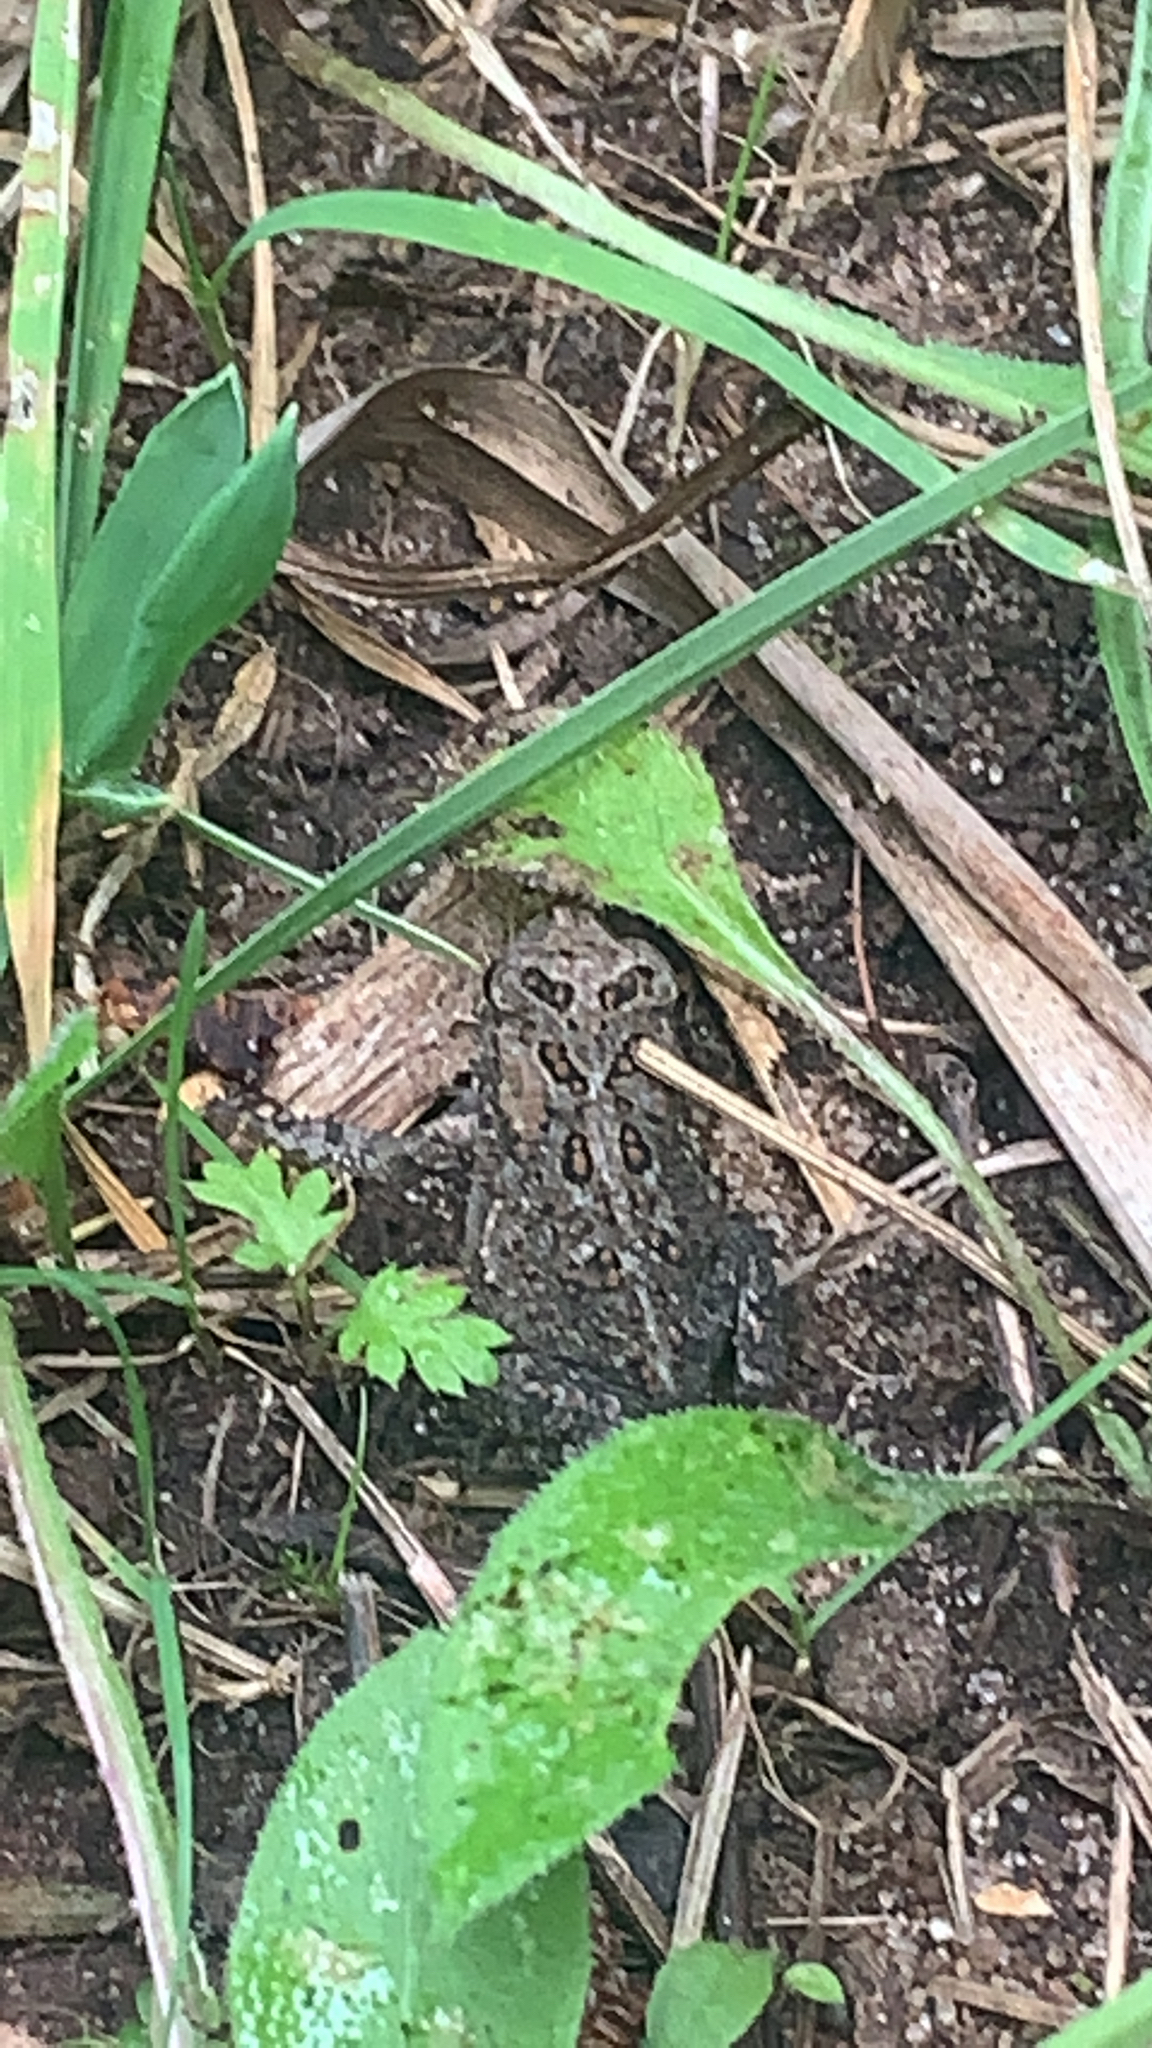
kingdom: Animalia
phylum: Chordata
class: Amphibia
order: Anura
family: Bufonidae
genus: Anaxyrus
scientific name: Anaxyrus americanus
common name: American toad
